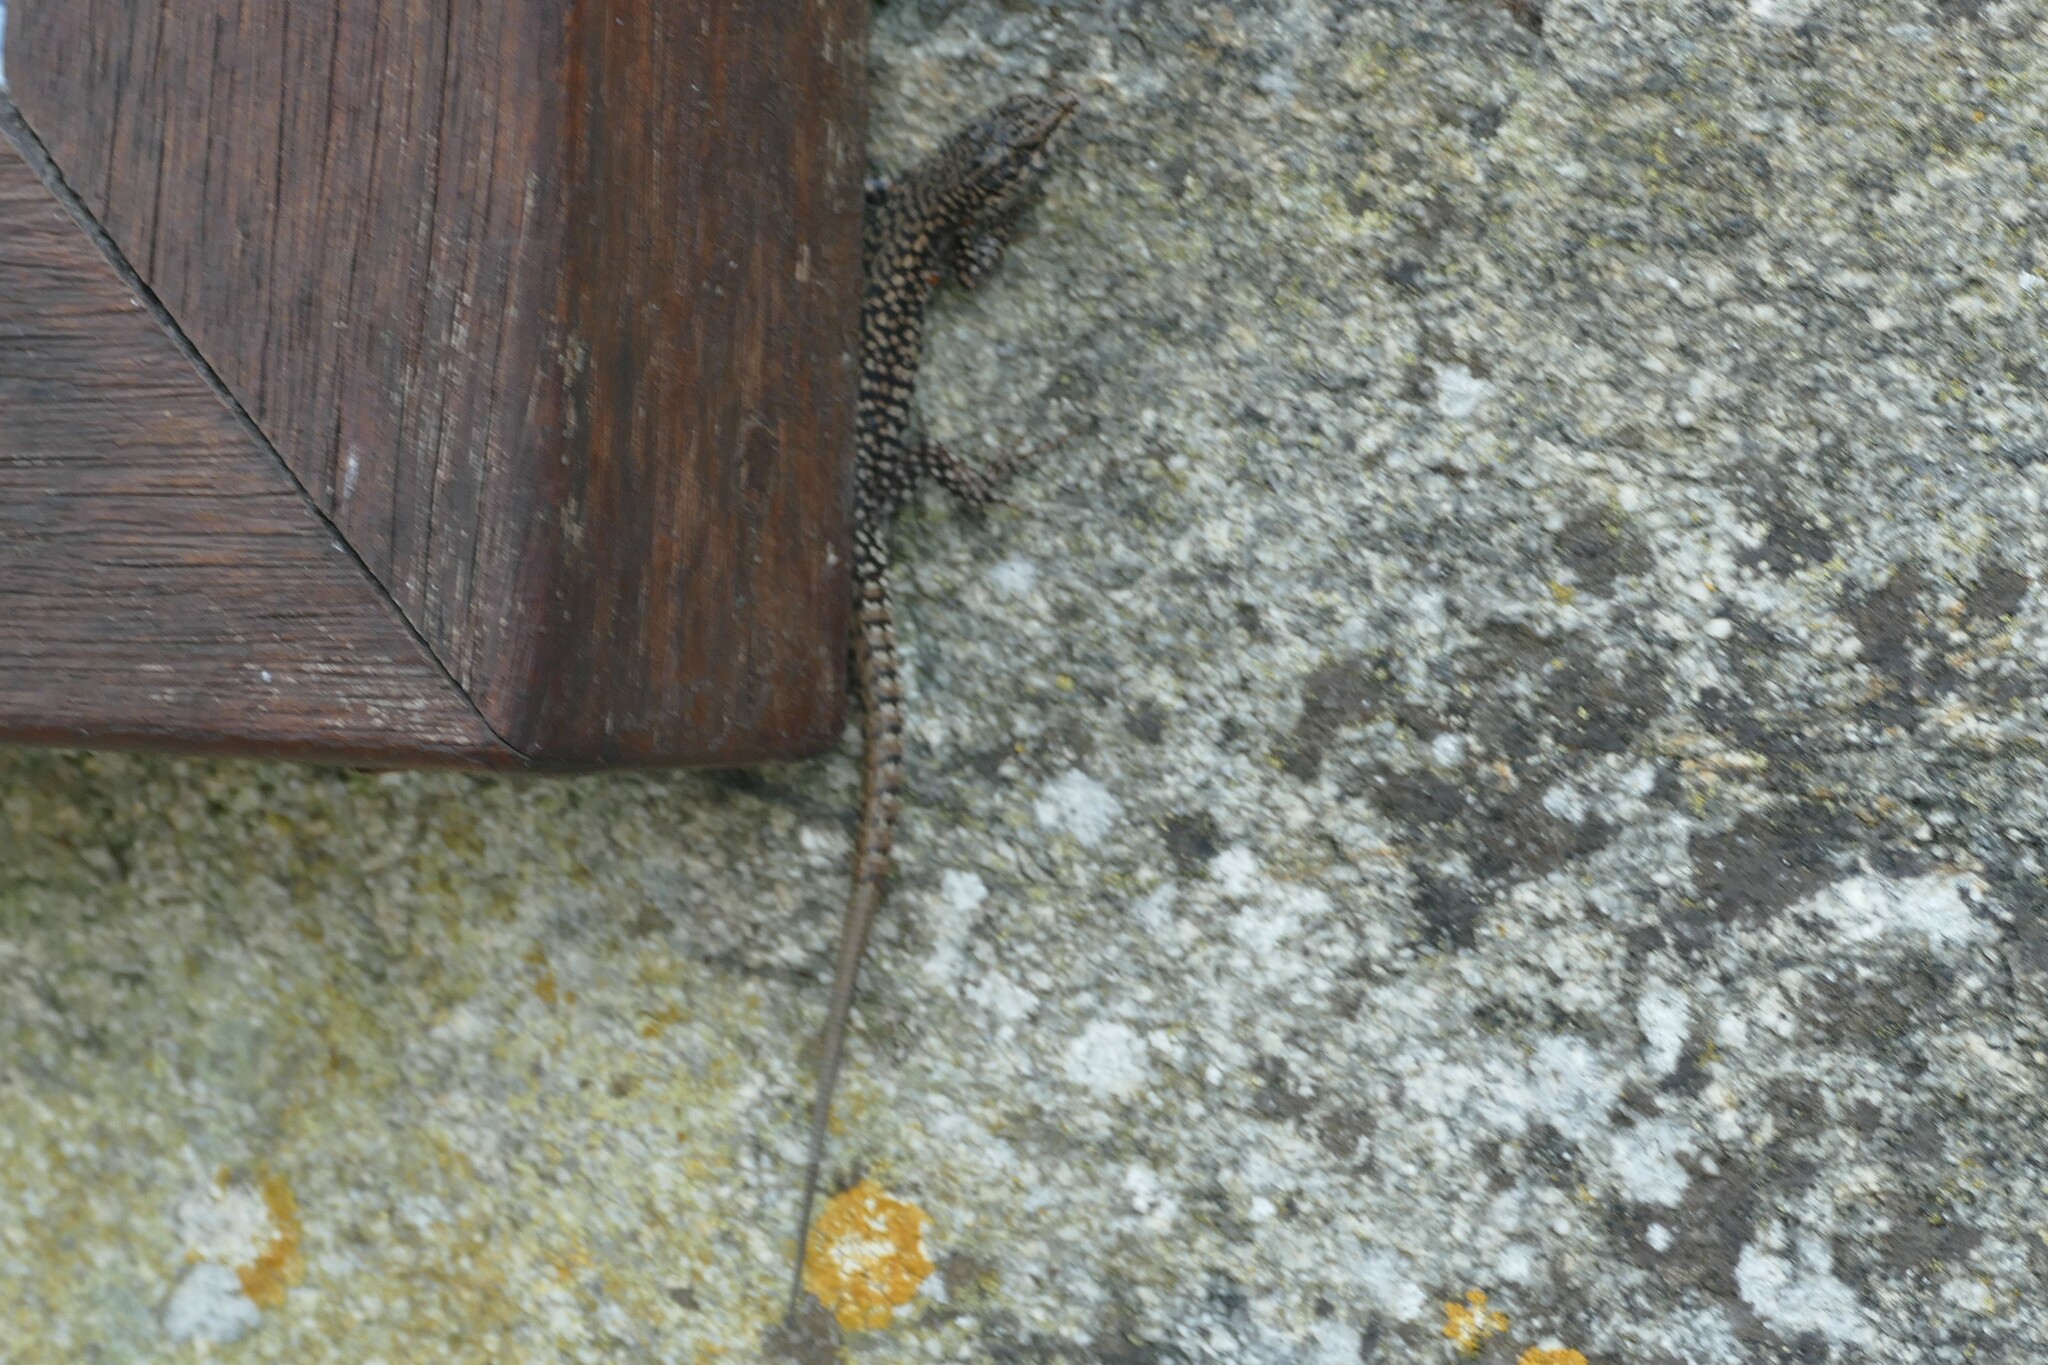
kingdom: Animalia
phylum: Chordata
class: Squamata
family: Lacertidae
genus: Podarcis
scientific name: Podarcis
